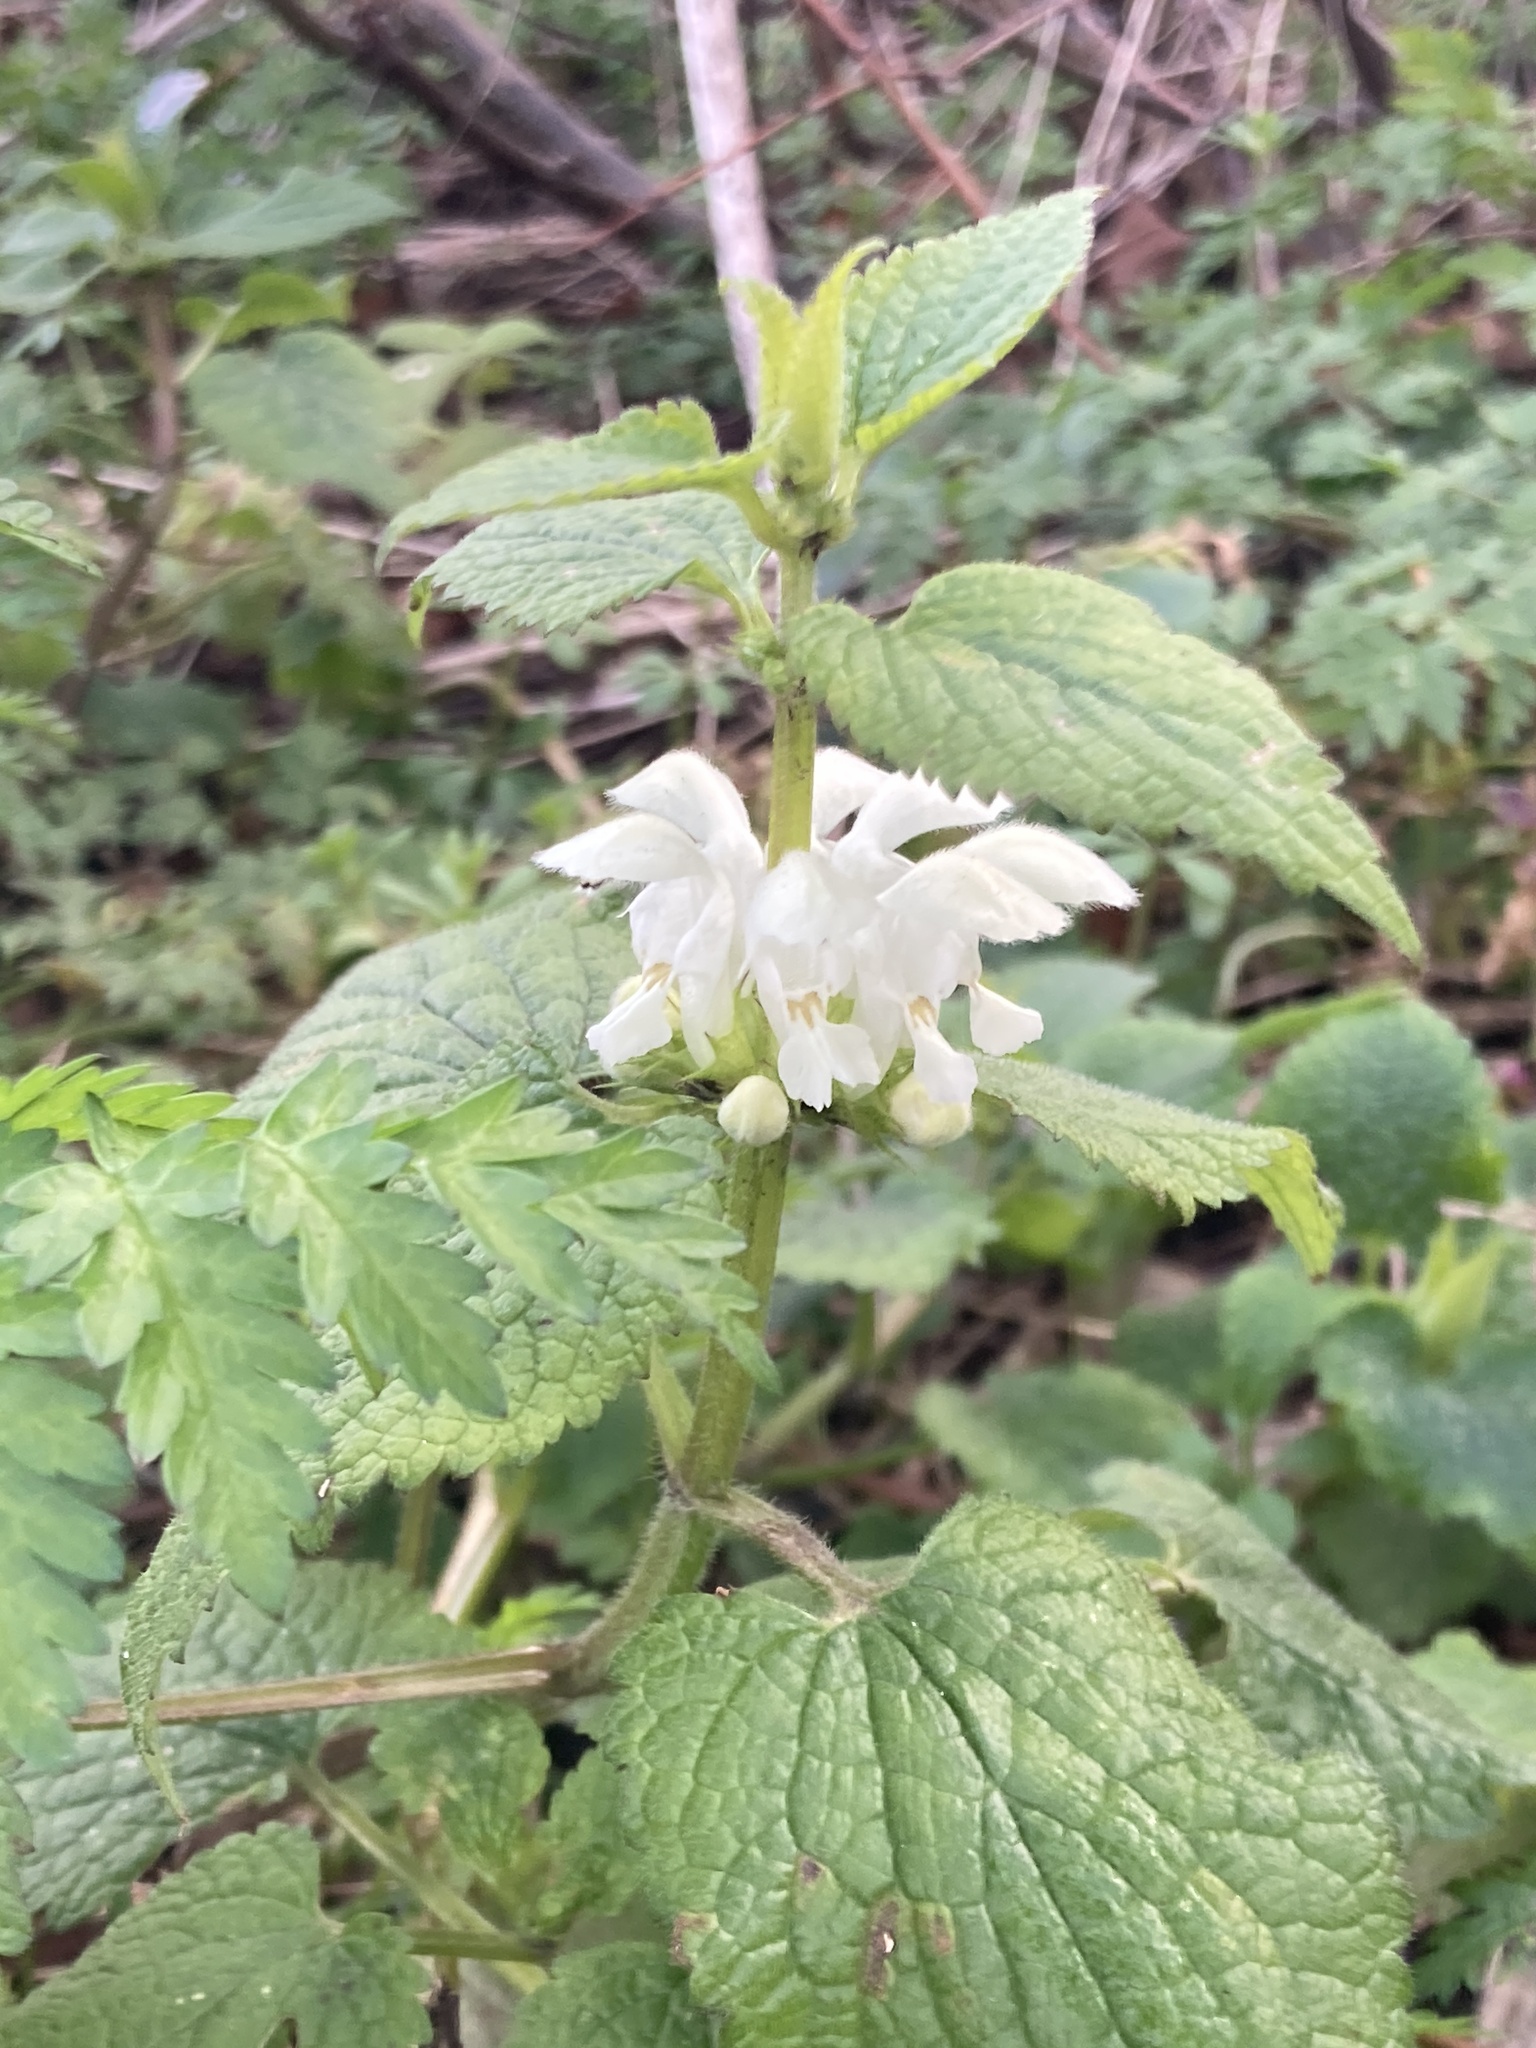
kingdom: Plantae
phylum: Tracheophyta
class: Magnoliopsida
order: Lamiales
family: Lamiaceae
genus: Lamium
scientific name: Lamium album
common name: White dead-nettle
